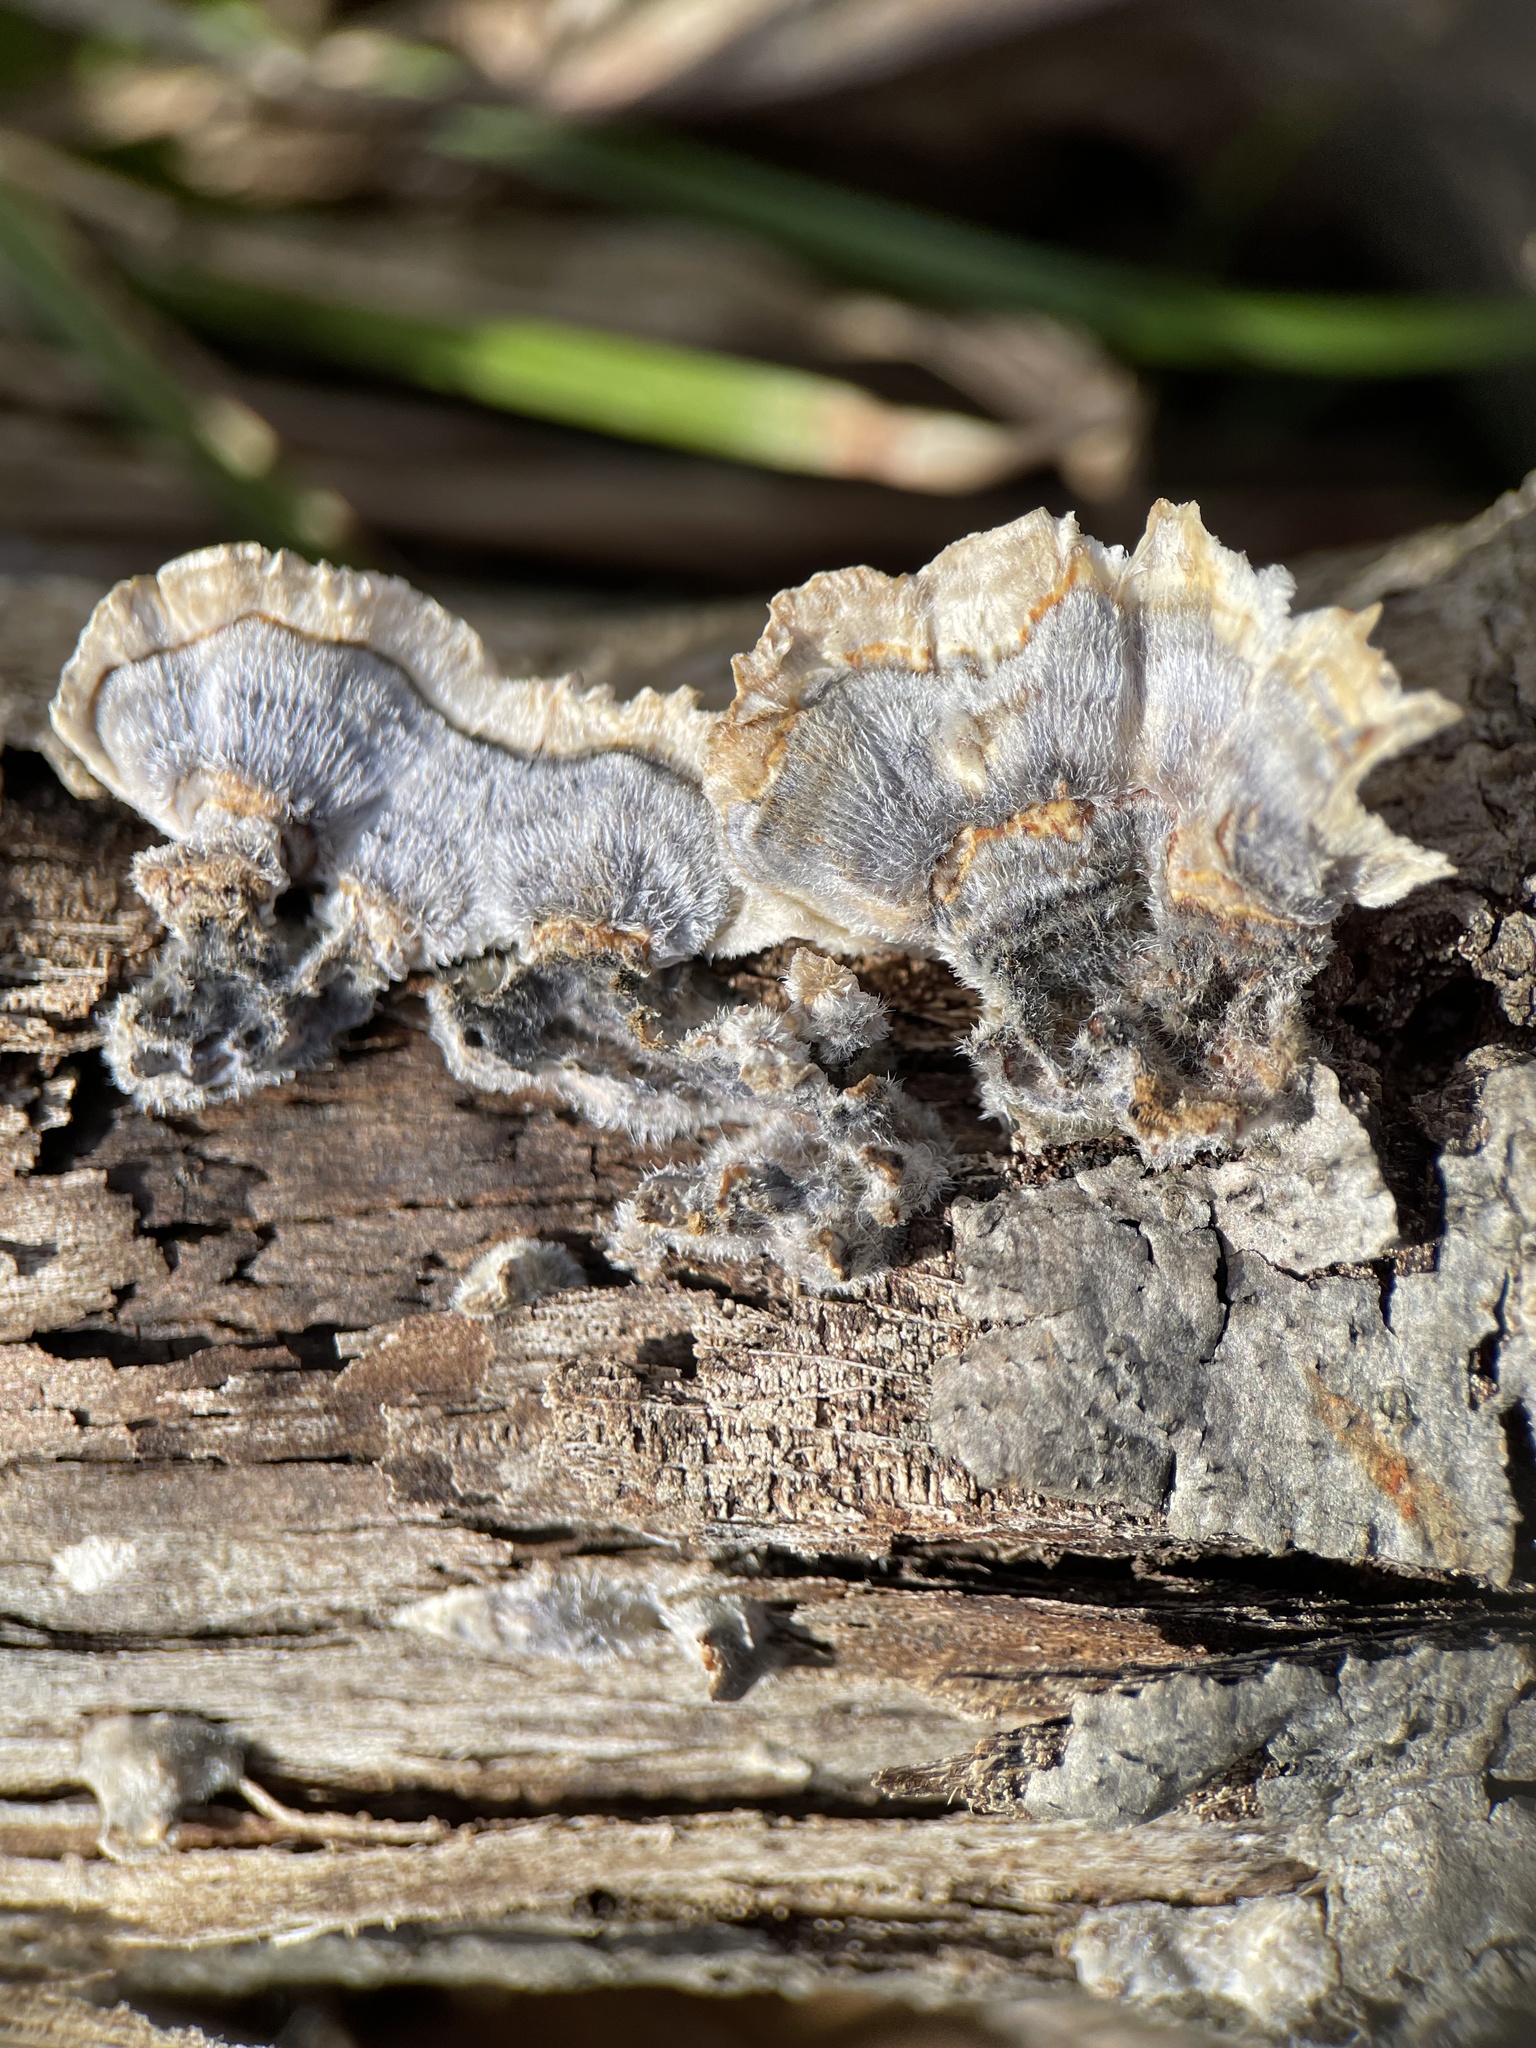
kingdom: Fungi
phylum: Basidiomycota
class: Agaricomycetes
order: Polyporales
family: Polyporaceae
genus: Trametes
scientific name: Trametes versicolor
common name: Turkeytail
